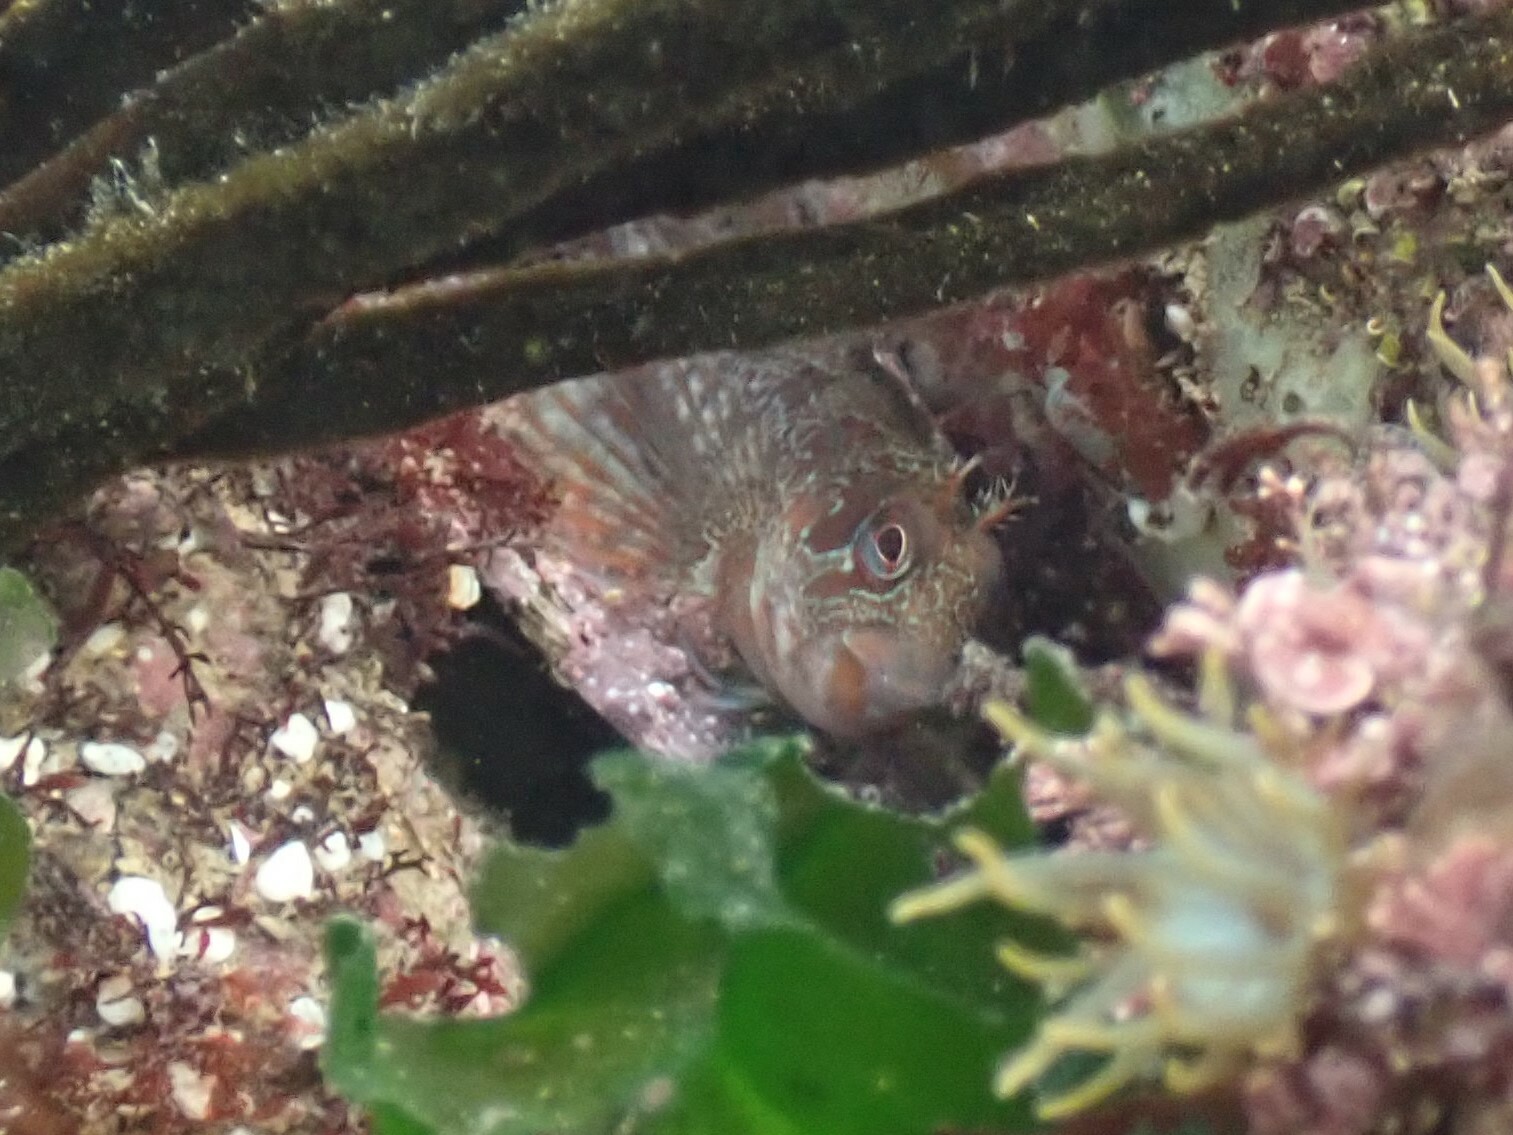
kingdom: Animalia
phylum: Chordata
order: Perciformes
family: Blenniidae
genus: Parablennius
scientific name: Parablennius gattorugine
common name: Tompot blenny
